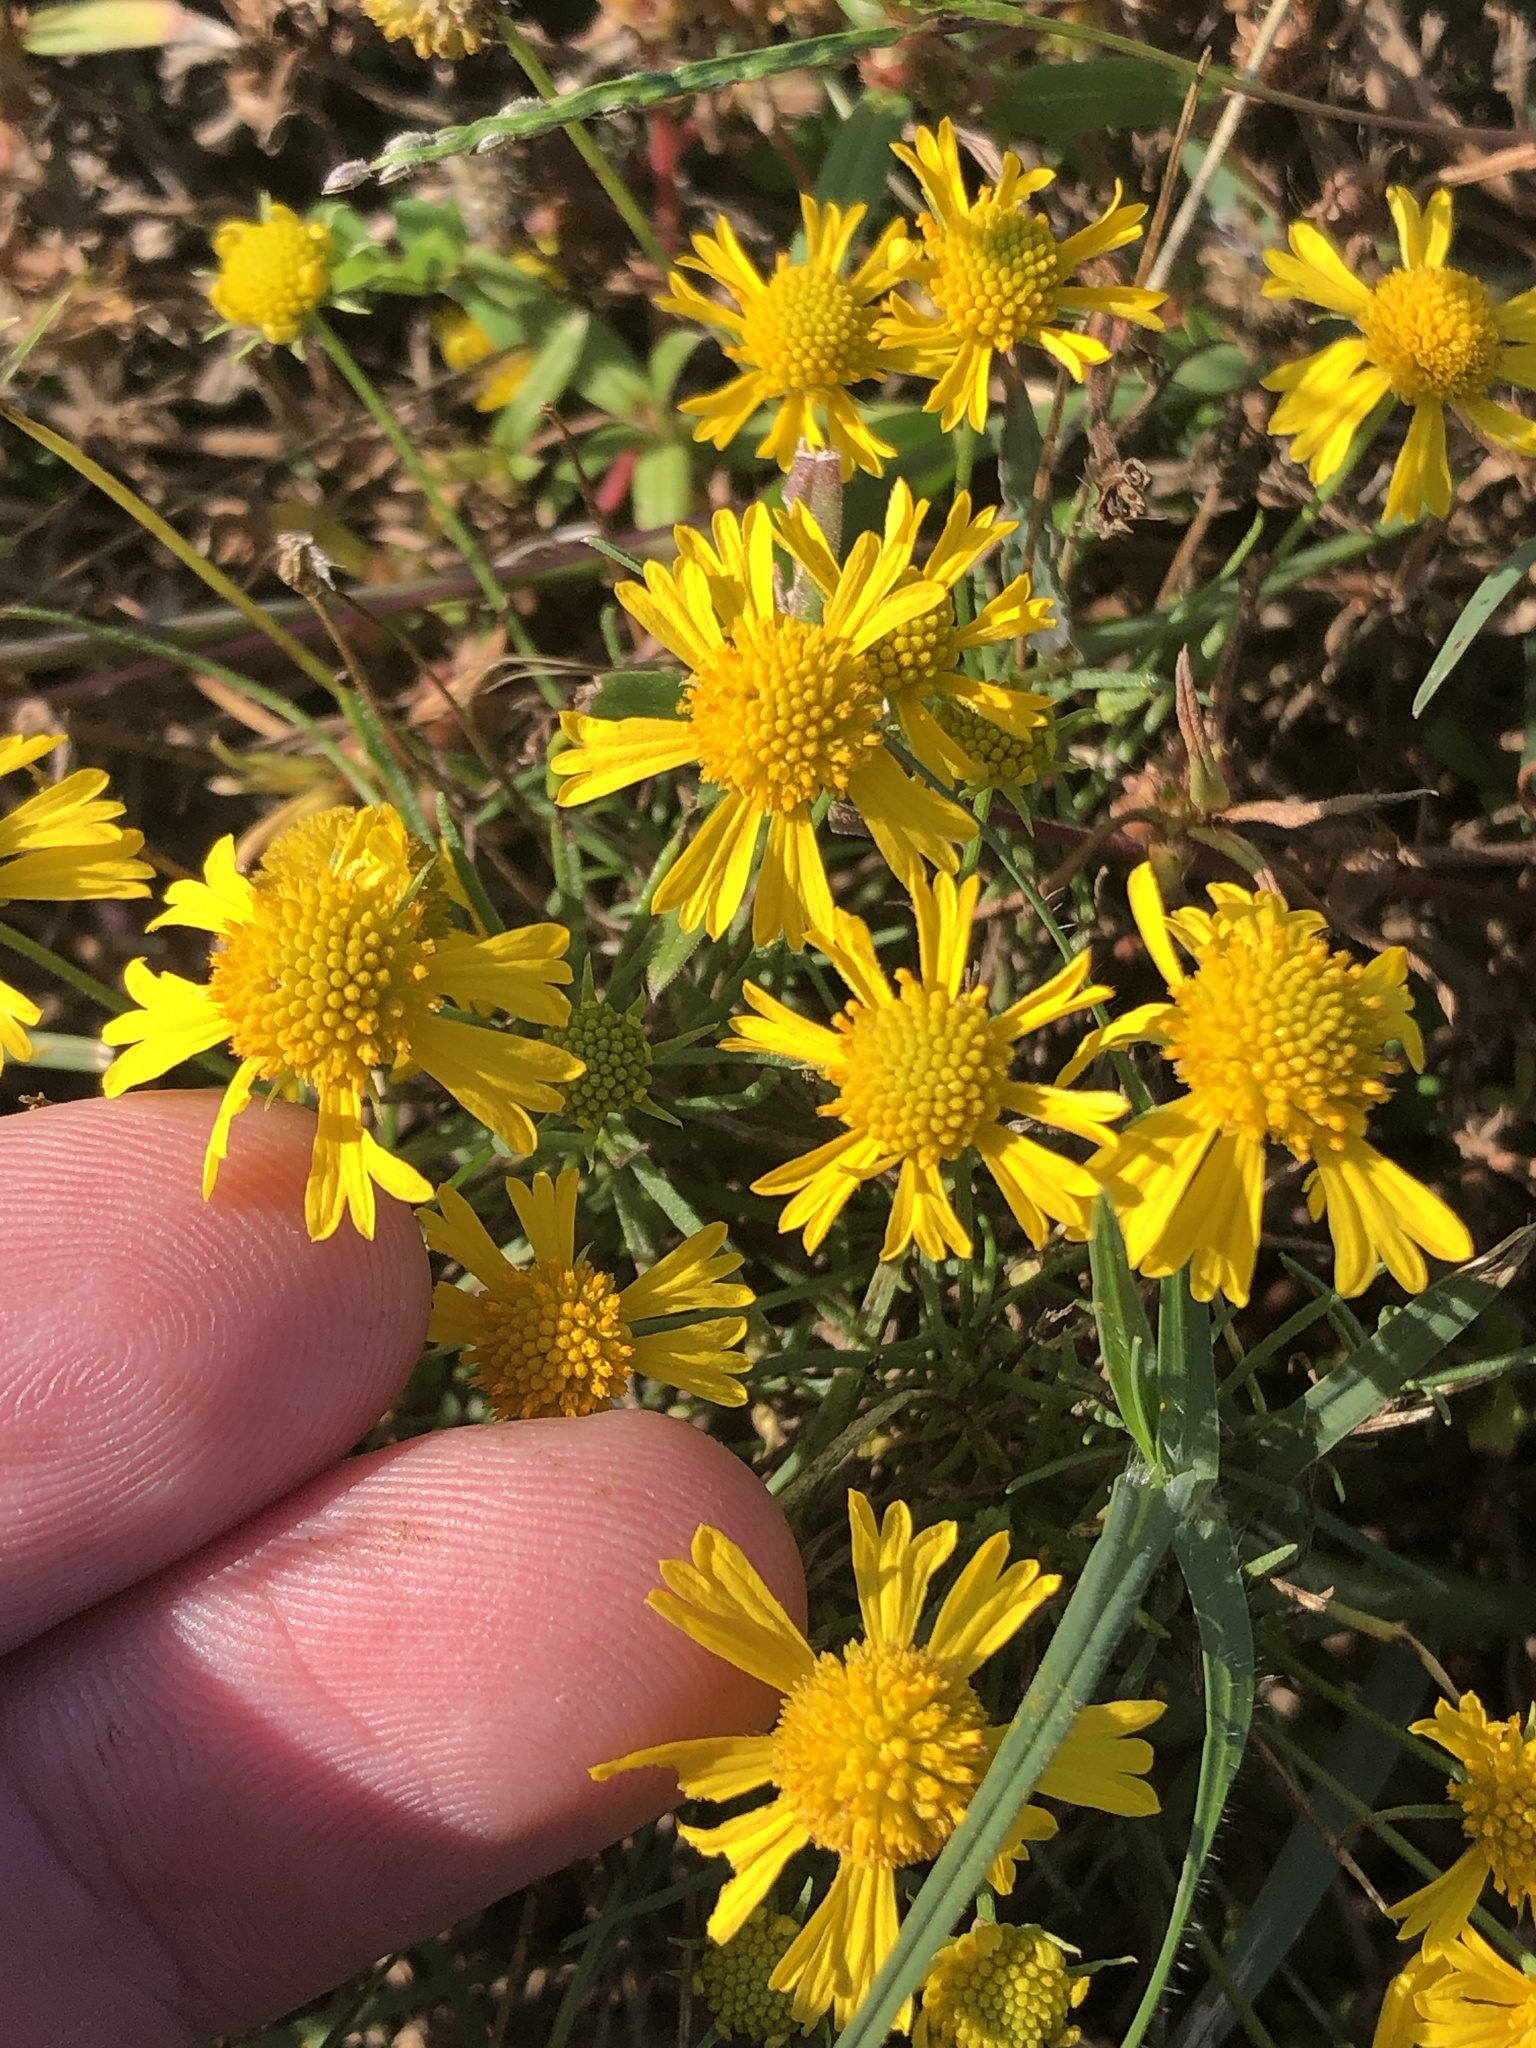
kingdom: Plantae
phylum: Tracheophyta
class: Magnoliopsida
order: Asterales
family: Asteraceae
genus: Helenium
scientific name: Helenium amarum
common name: Bitter sneezeweed
